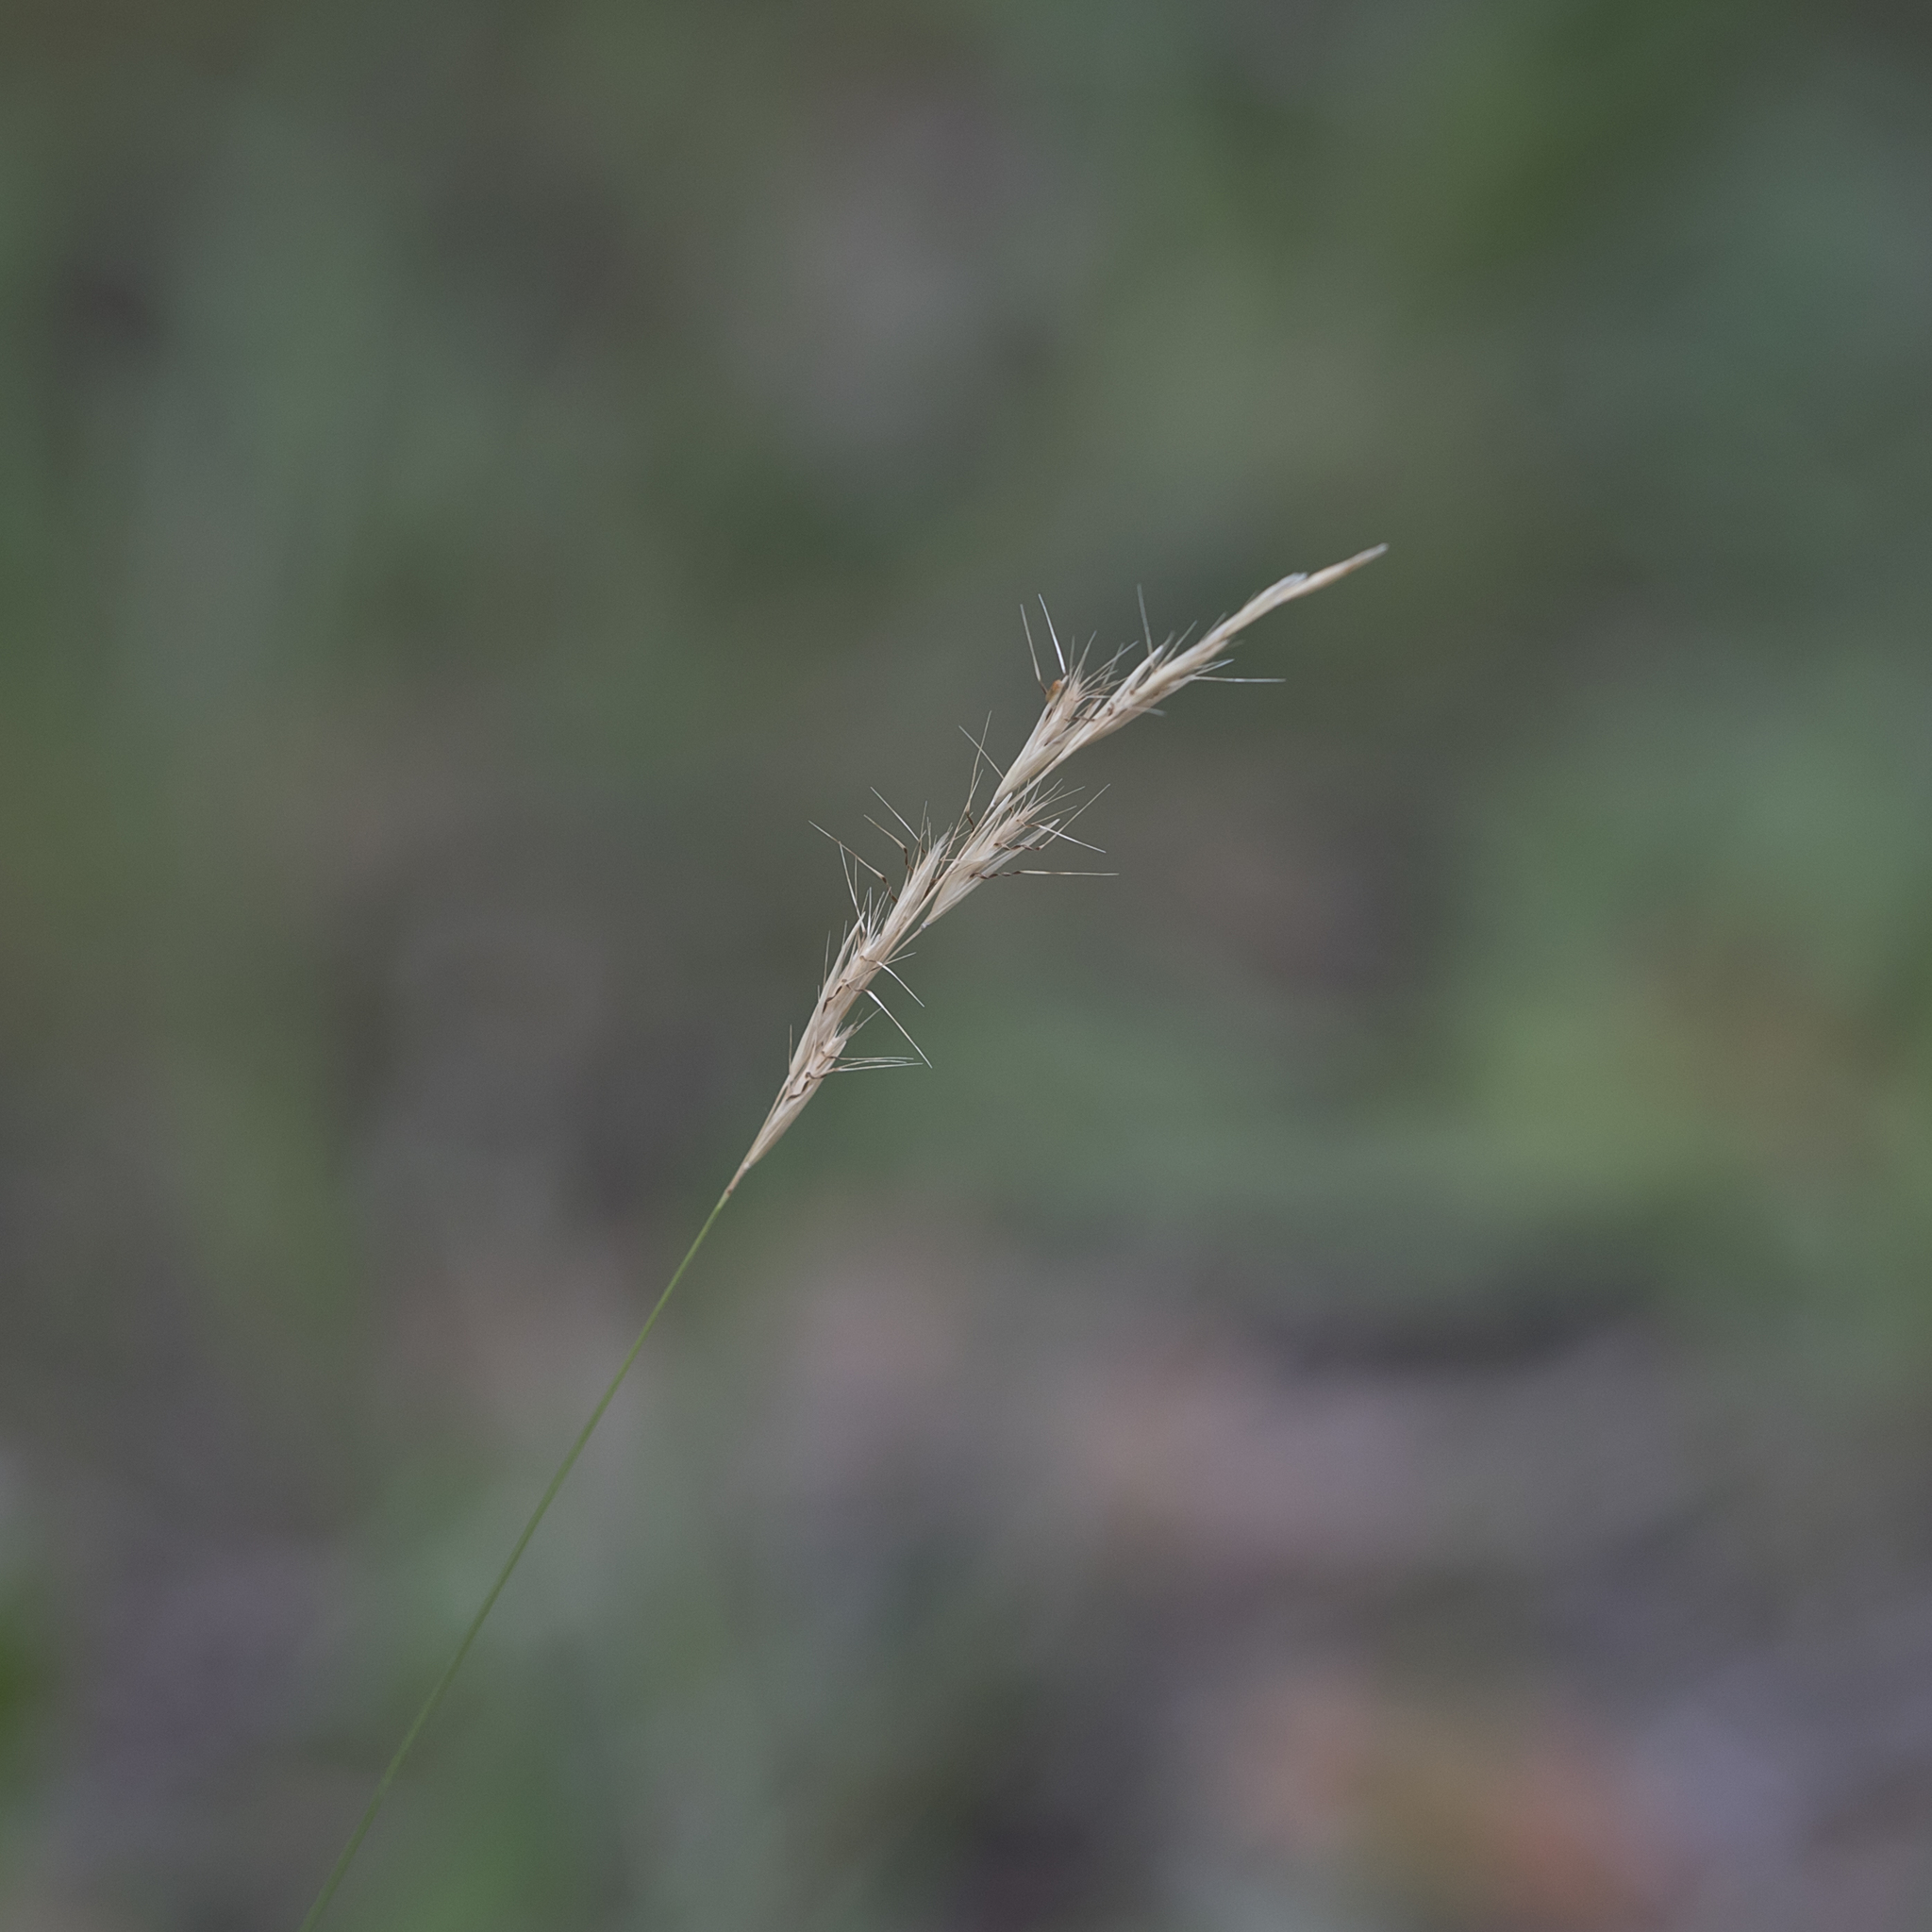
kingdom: Plantae
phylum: Tracheophyta
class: Liliopsida
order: Poales
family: Poaceae
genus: Rytidosperma
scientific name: Rytidosperma racemosum
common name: Wallaby-grass
